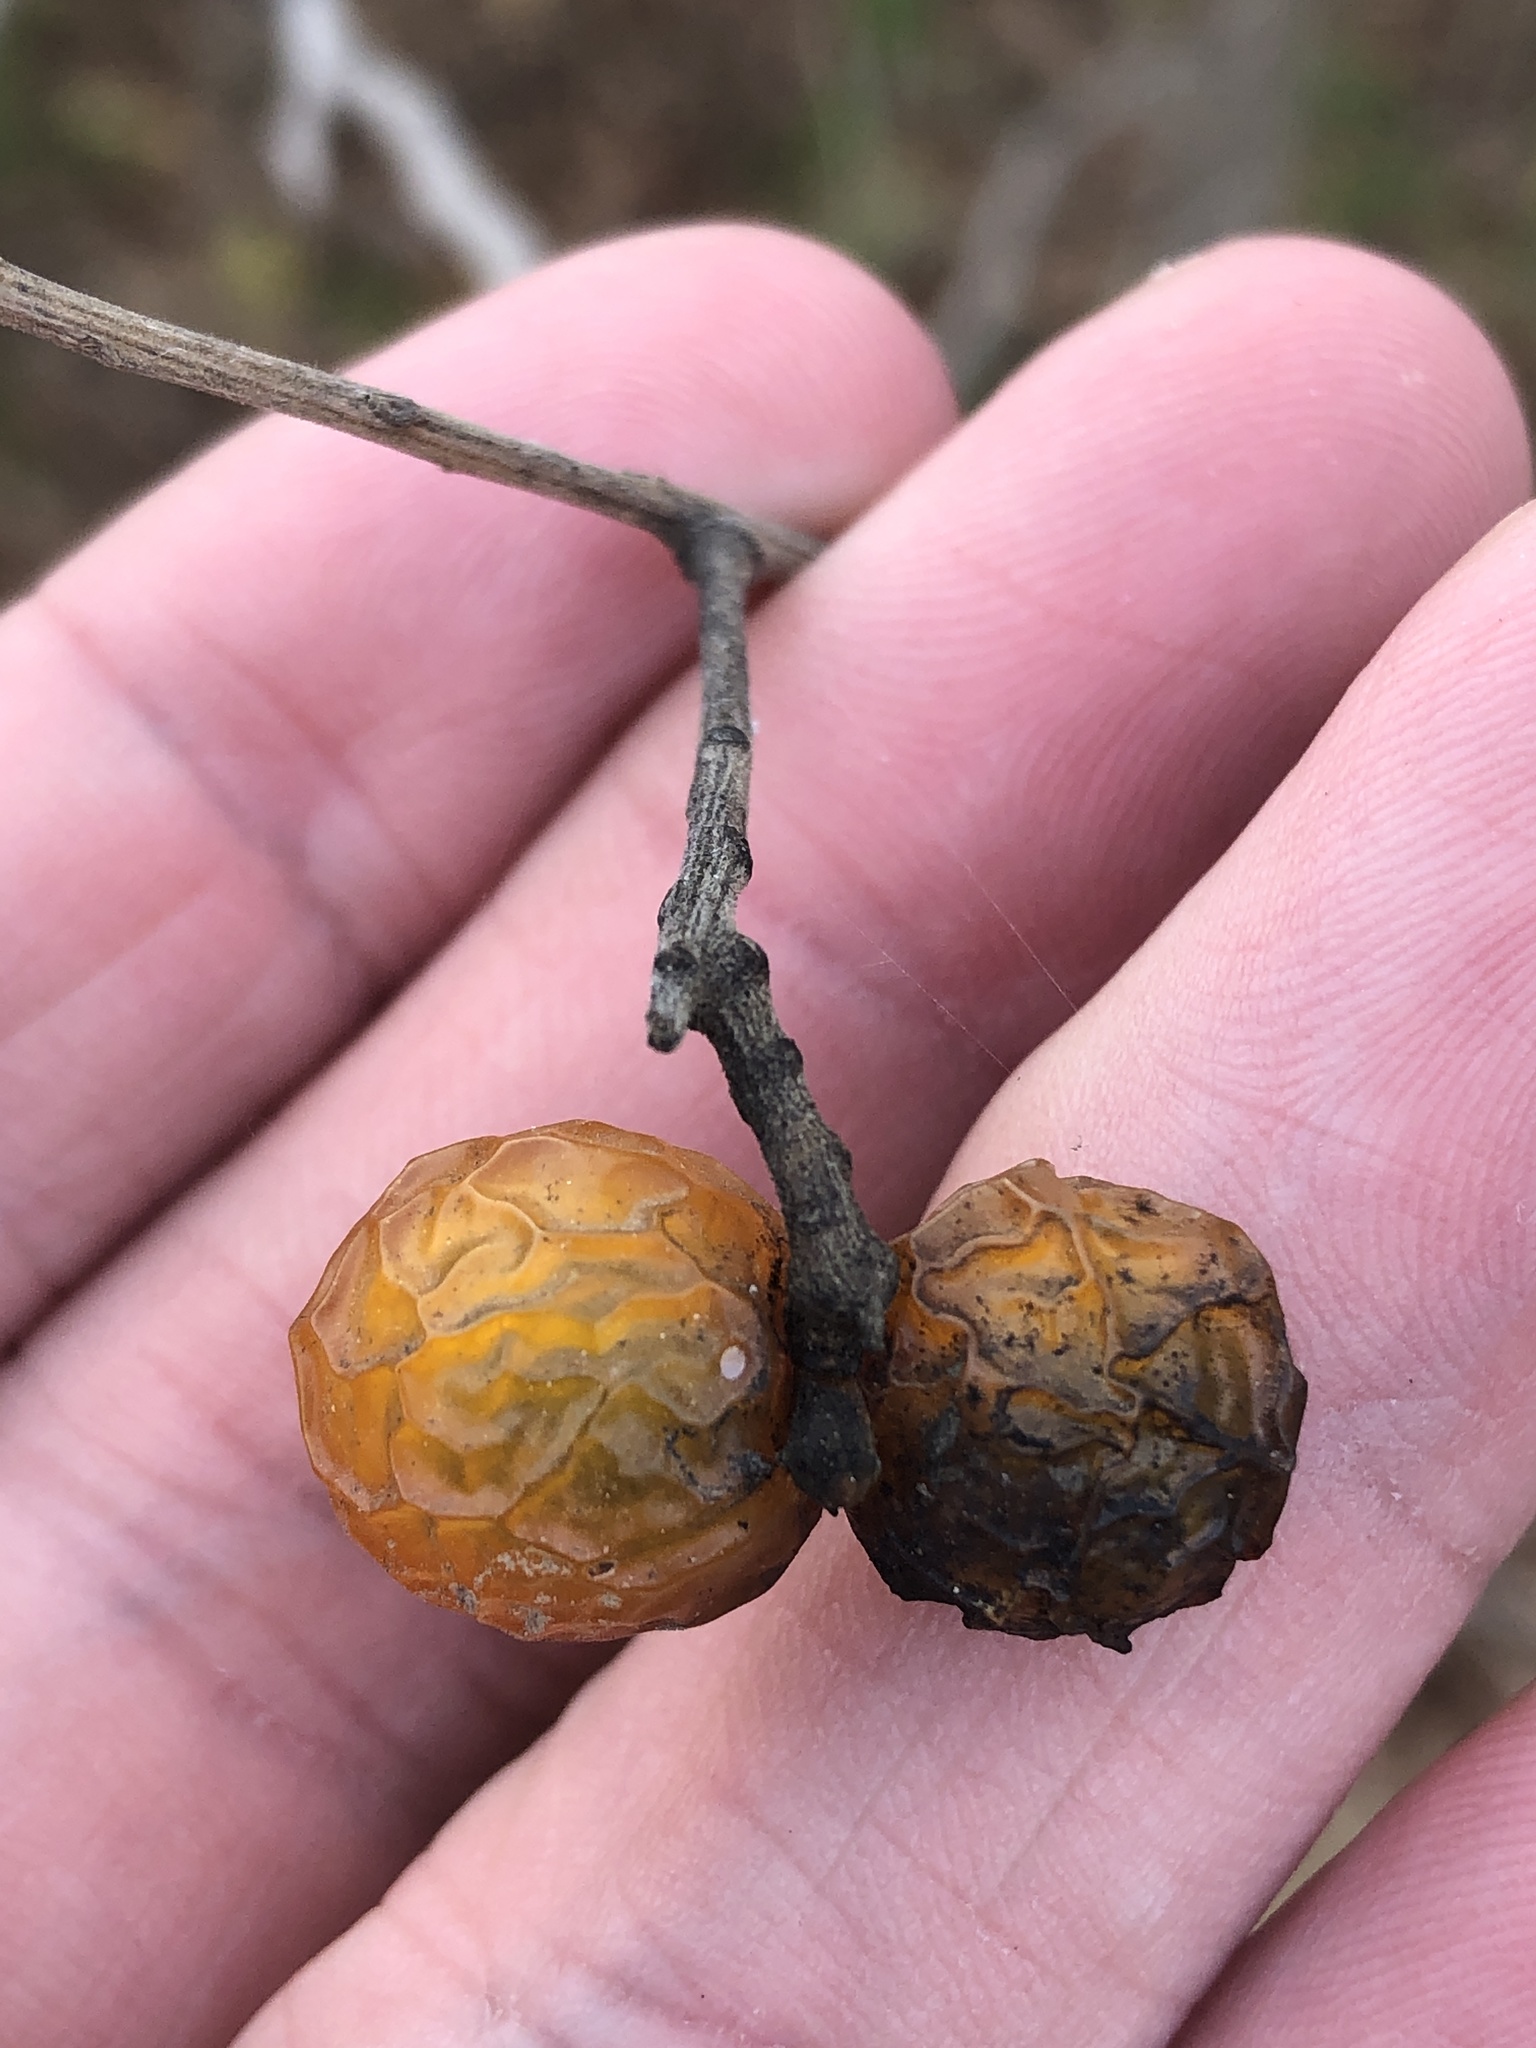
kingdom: Plantae
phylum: Tracheophyta
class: Magnoliopsida
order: Sapindales
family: Sapindaceae
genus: Sapindus
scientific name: Sapindus drummondii
